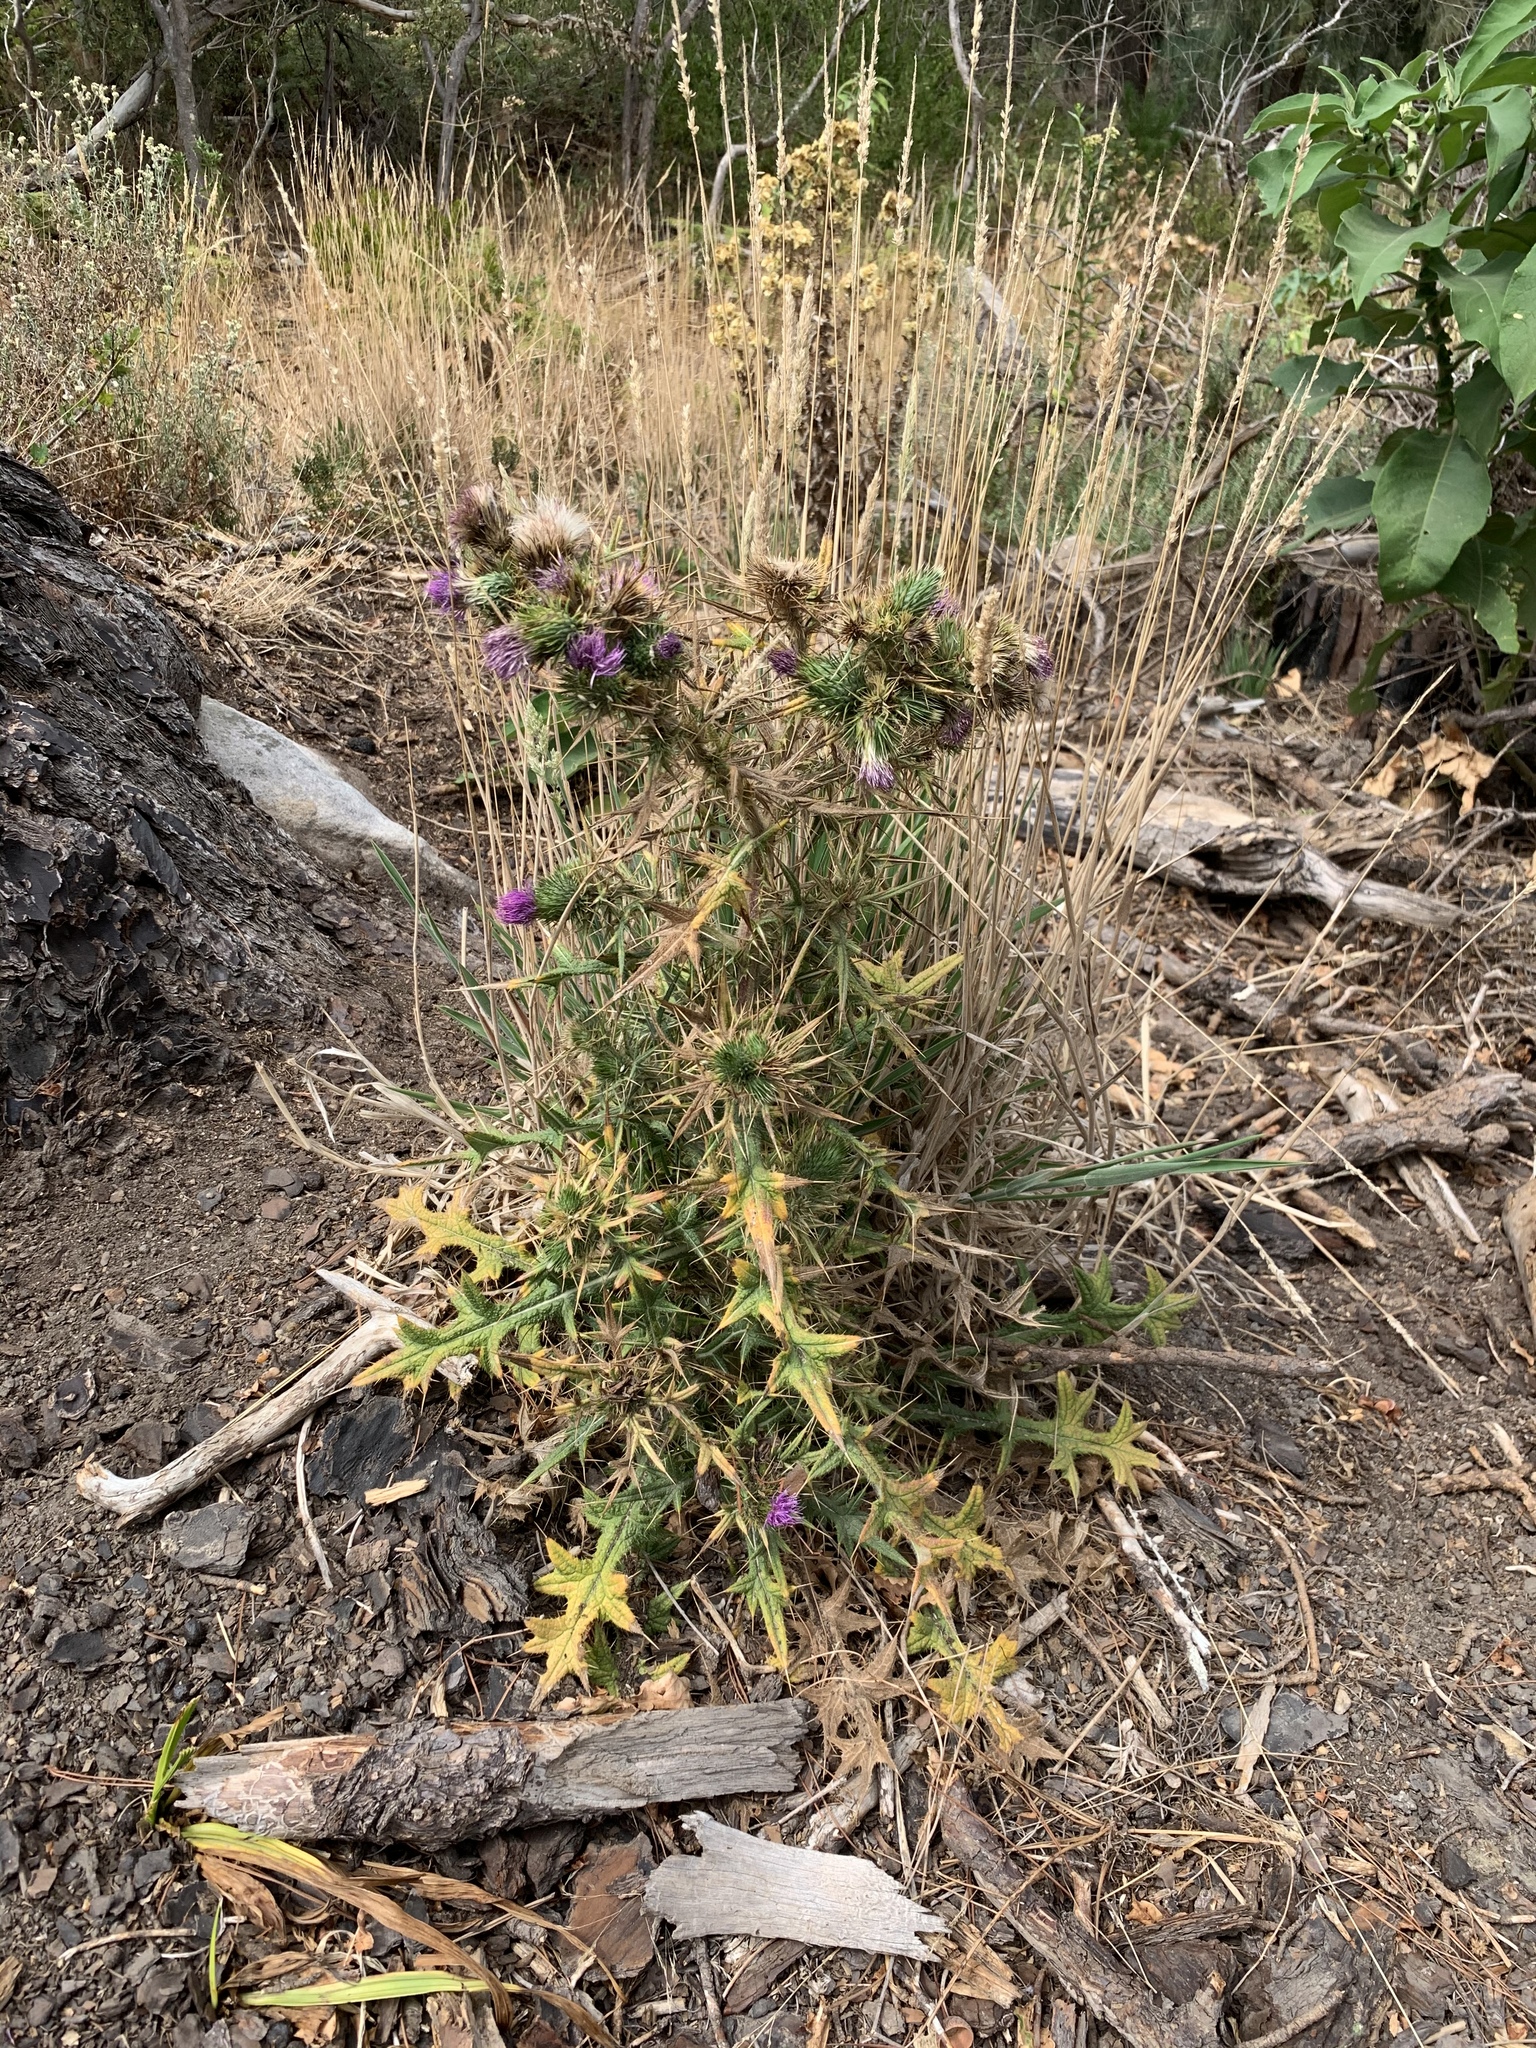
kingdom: Plantae
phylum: Tracheophyta
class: Magnoliopsida
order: Asterales
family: Asteraceae
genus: Cirsium
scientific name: Cirsium vulgare
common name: Bull thistle
